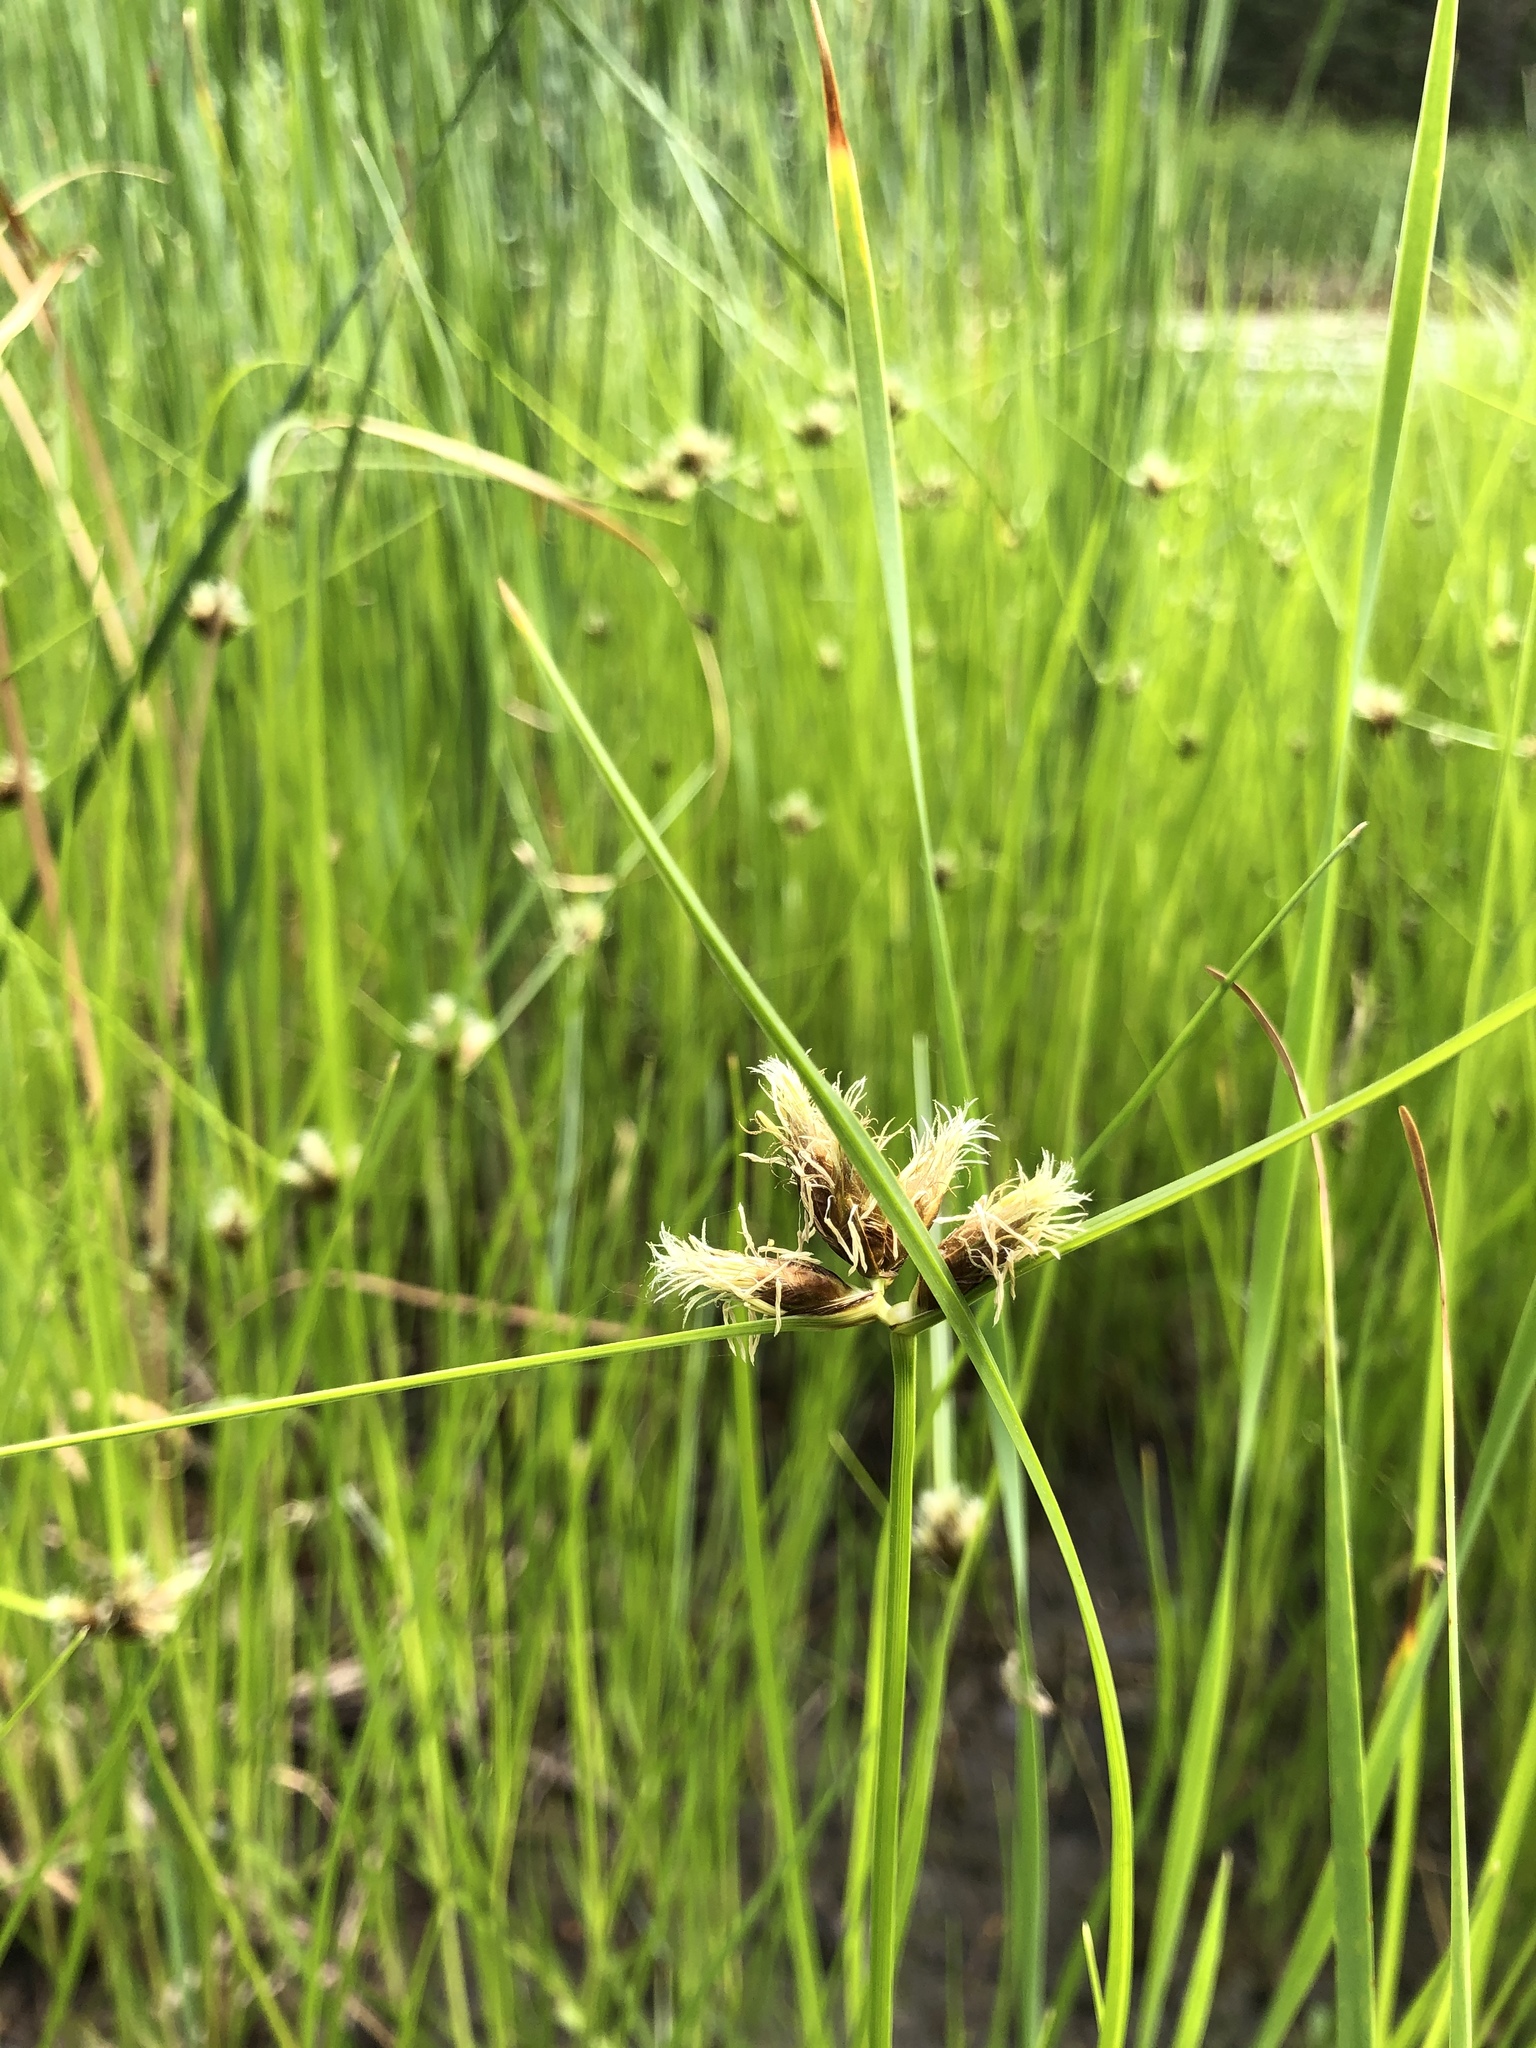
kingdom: Plantae
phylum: Tracheophyta
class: Liliopsida
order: Poales
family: Cyperaceae
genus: Bolboschoenus
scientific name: Bolboschoenus maritimus
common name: Sea club-rush
